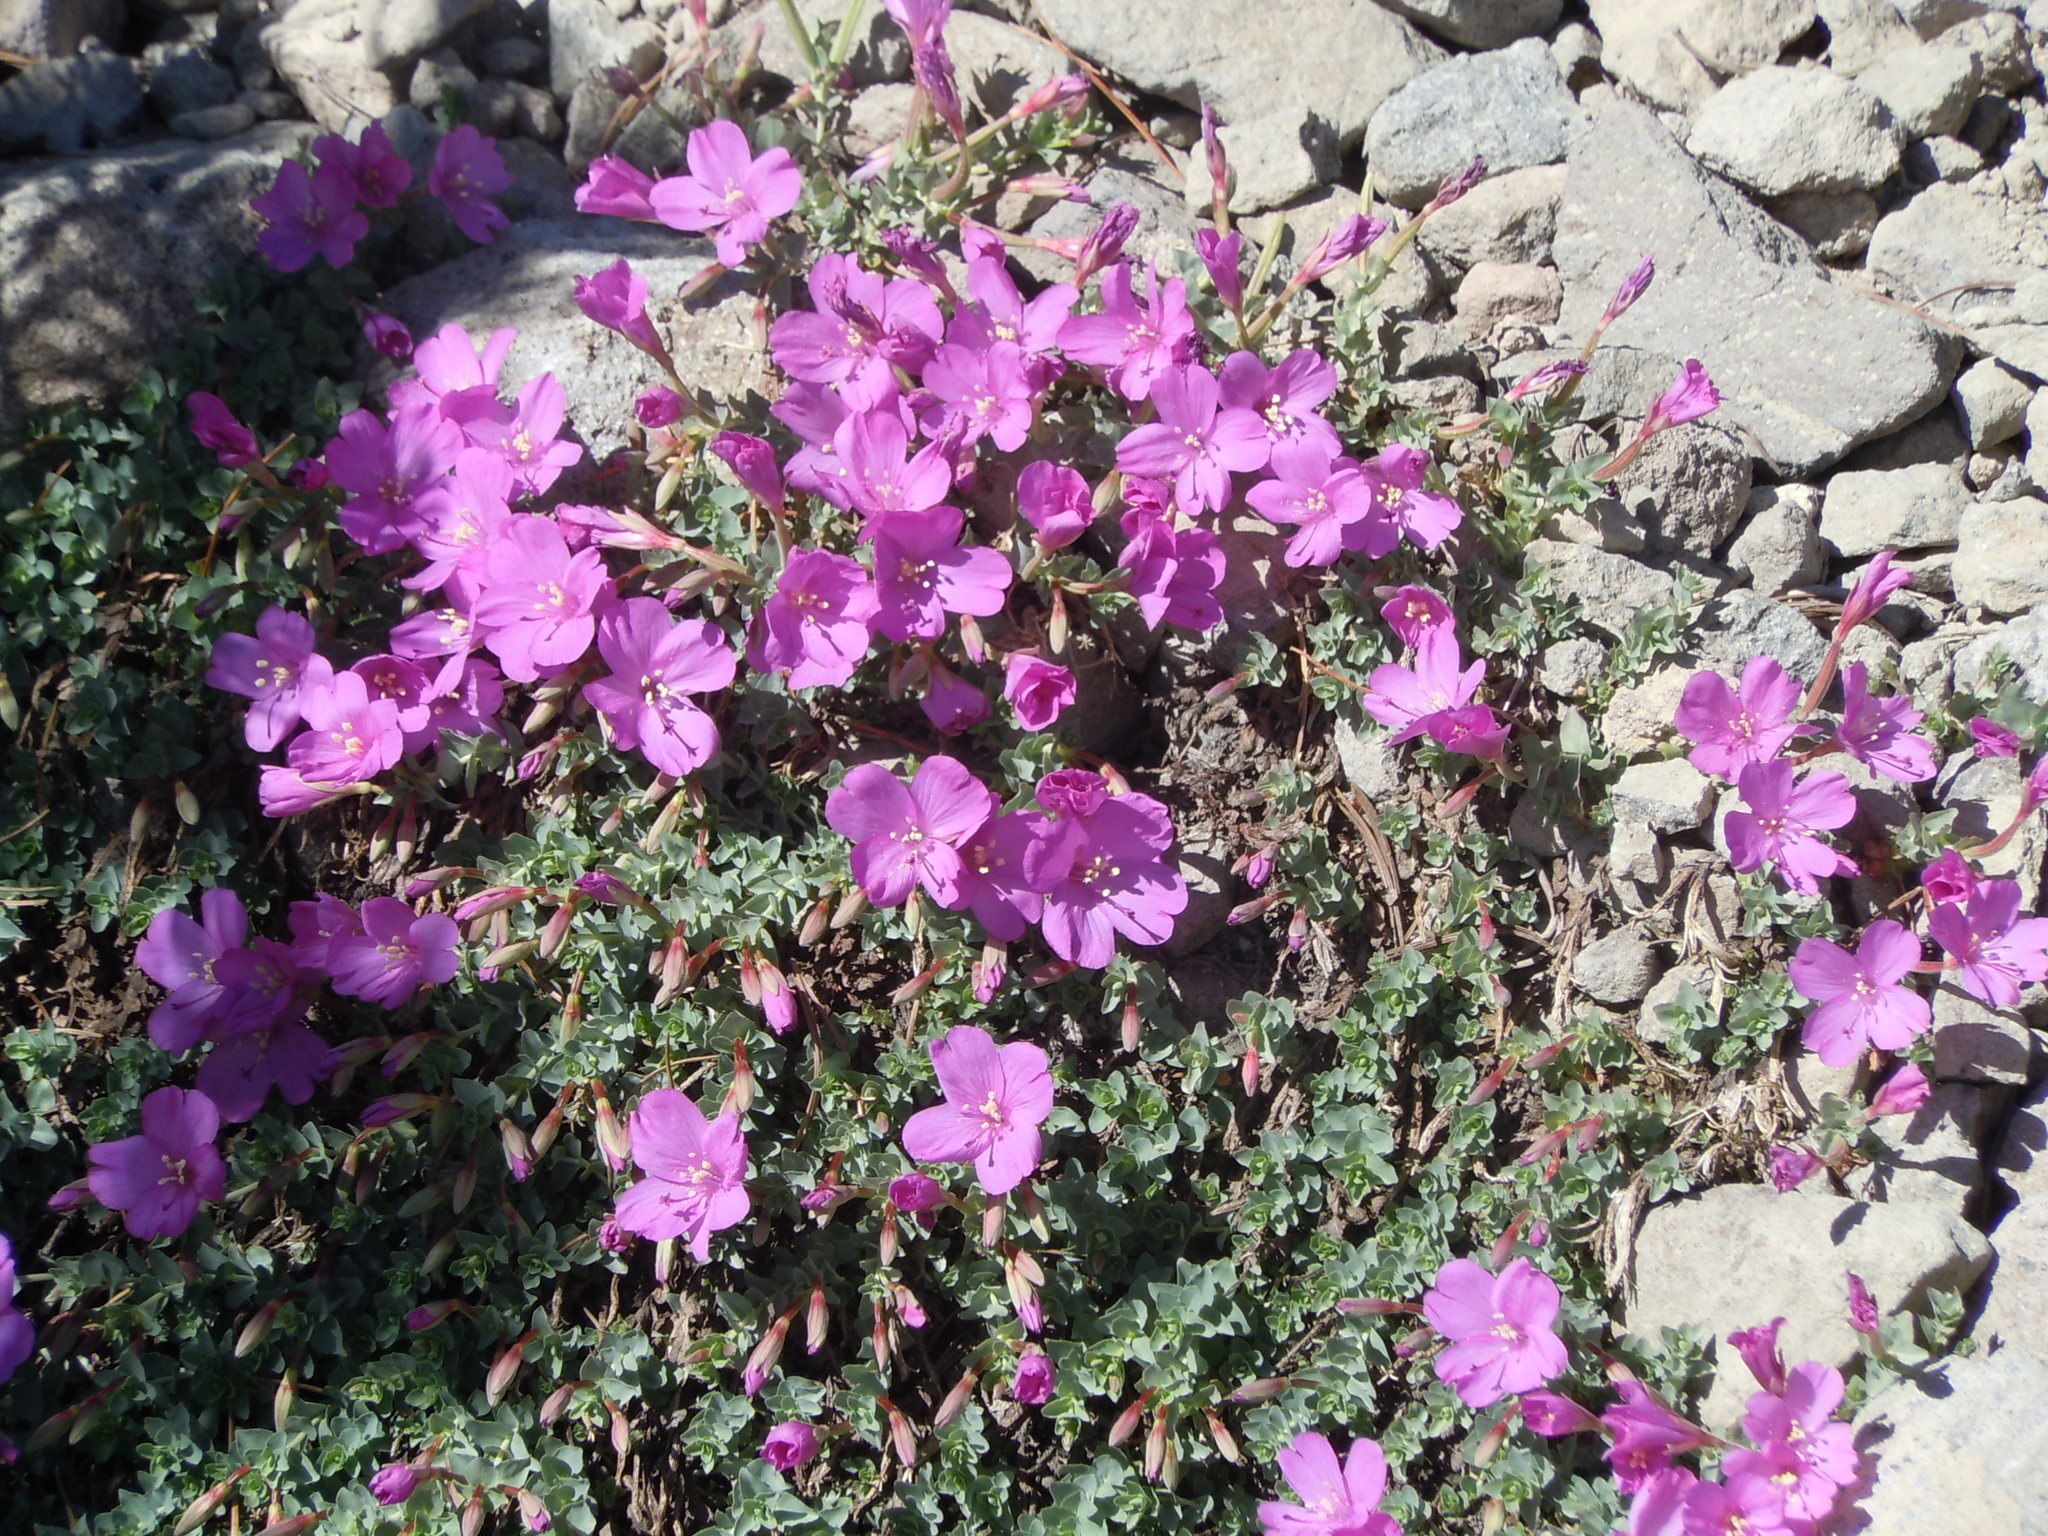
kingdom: Plantae
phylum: Tracheophyta
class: Magnoliopsida
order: Myrtales
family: Onagraceae
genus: Epilobium
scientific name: Epilobium obcordatum
